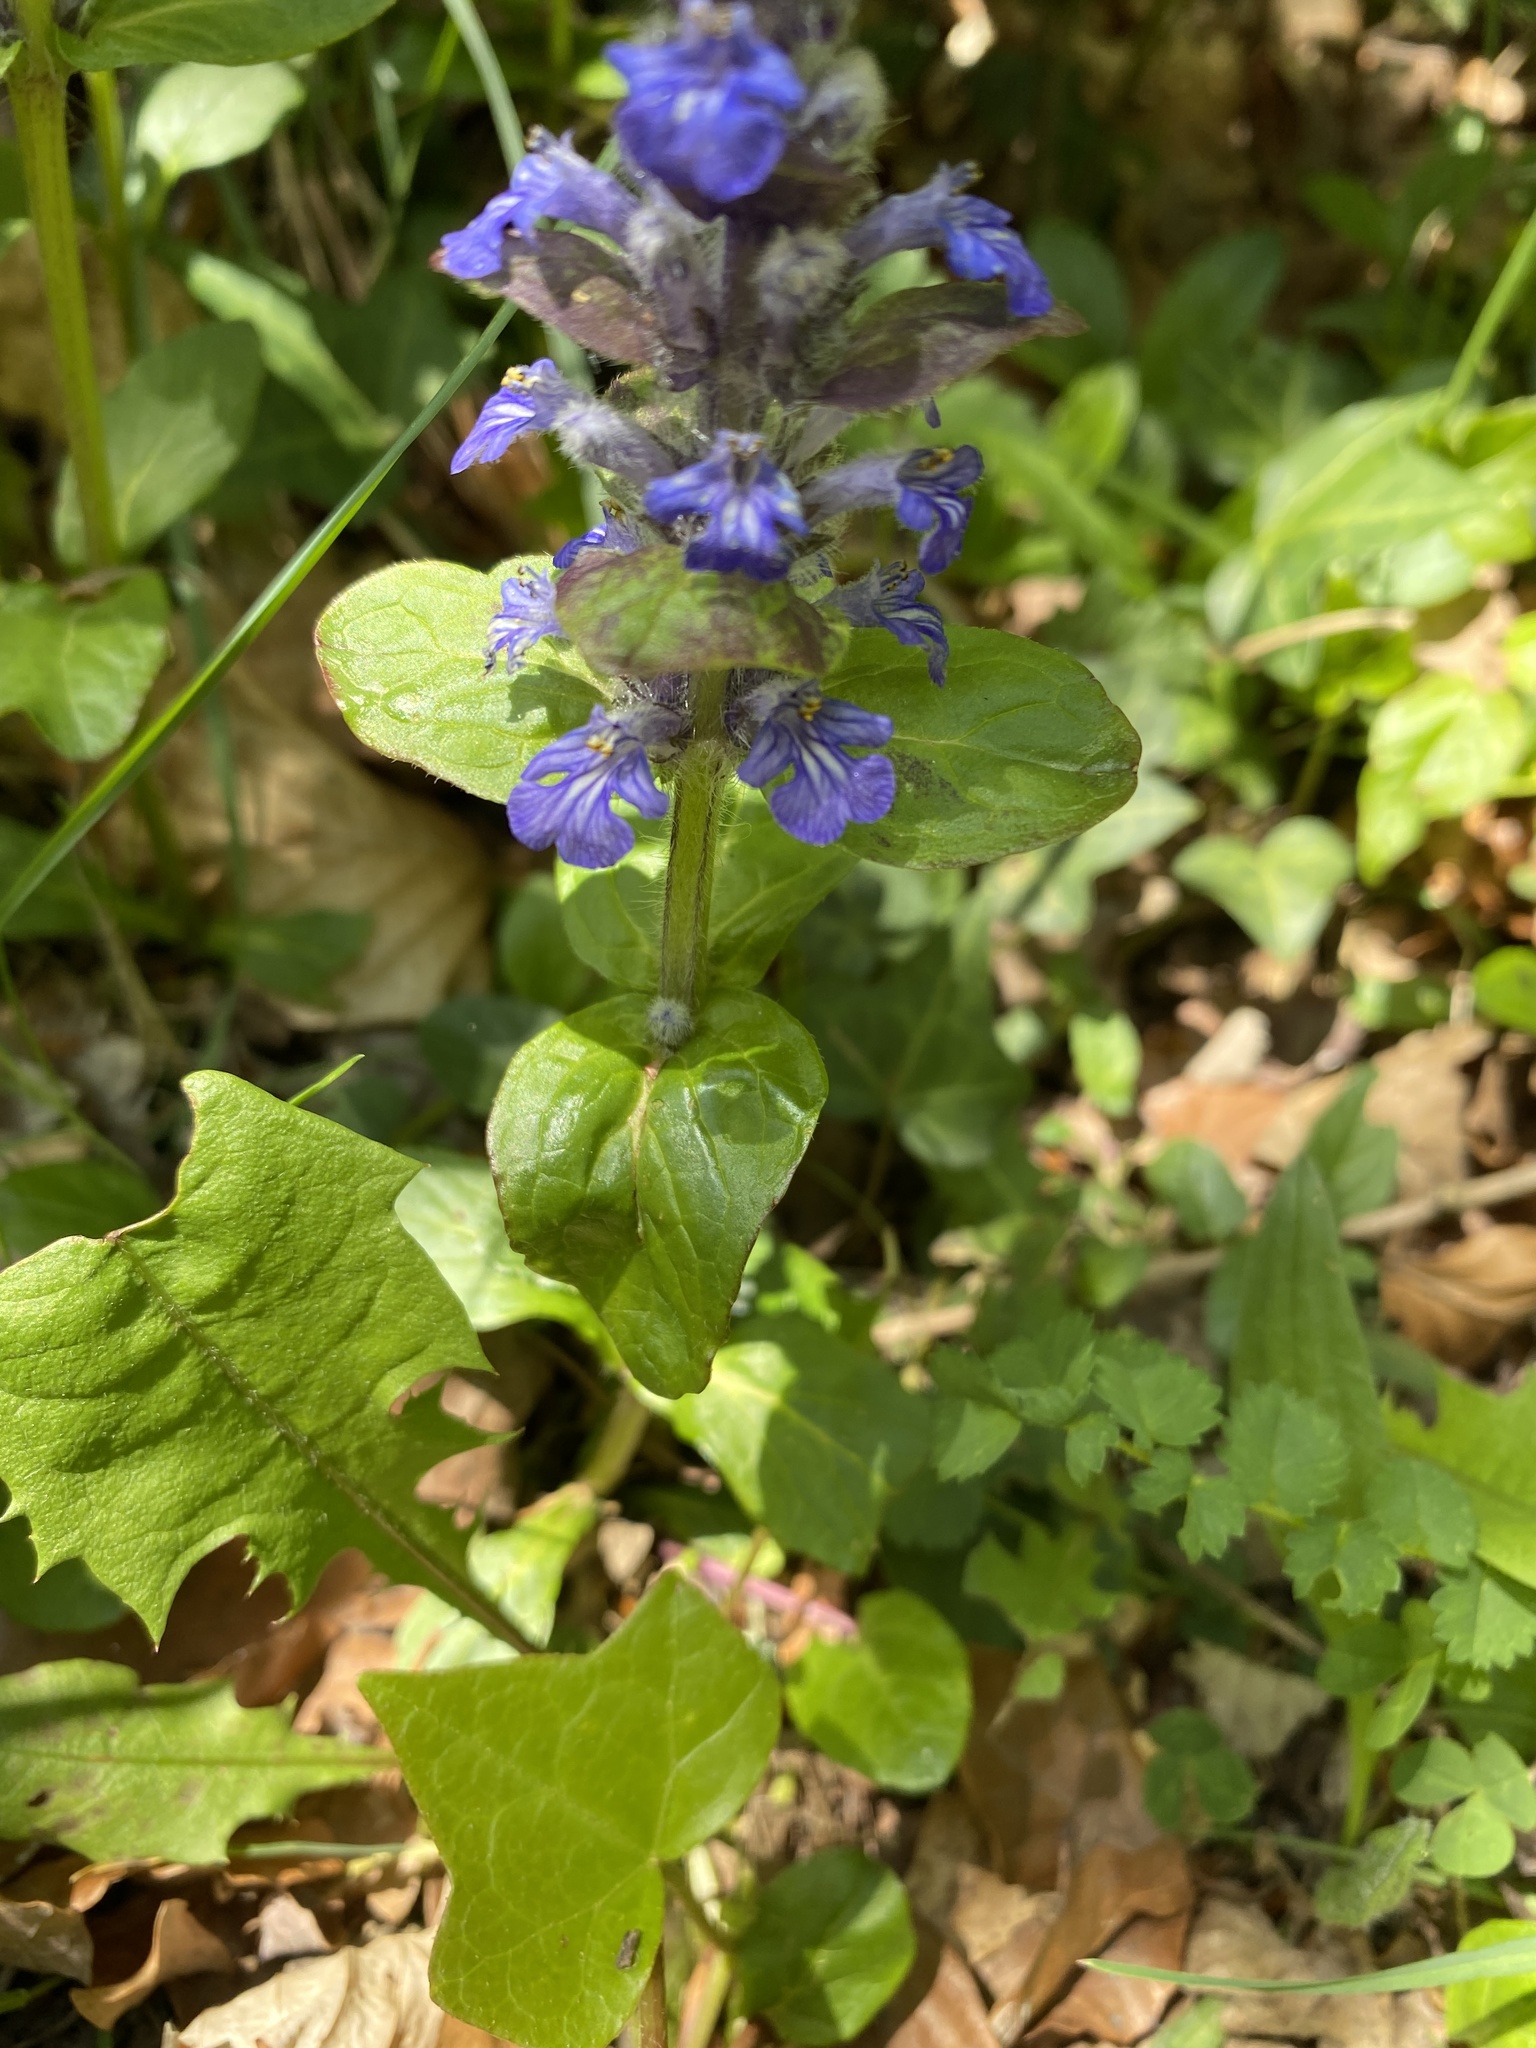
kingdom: Plantae
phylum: Tracheophyta
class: Magnoliopsida
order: Lamiales
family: Lamiaceae
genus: Ajuga
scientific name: Ajuga reptans
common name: Bugle
